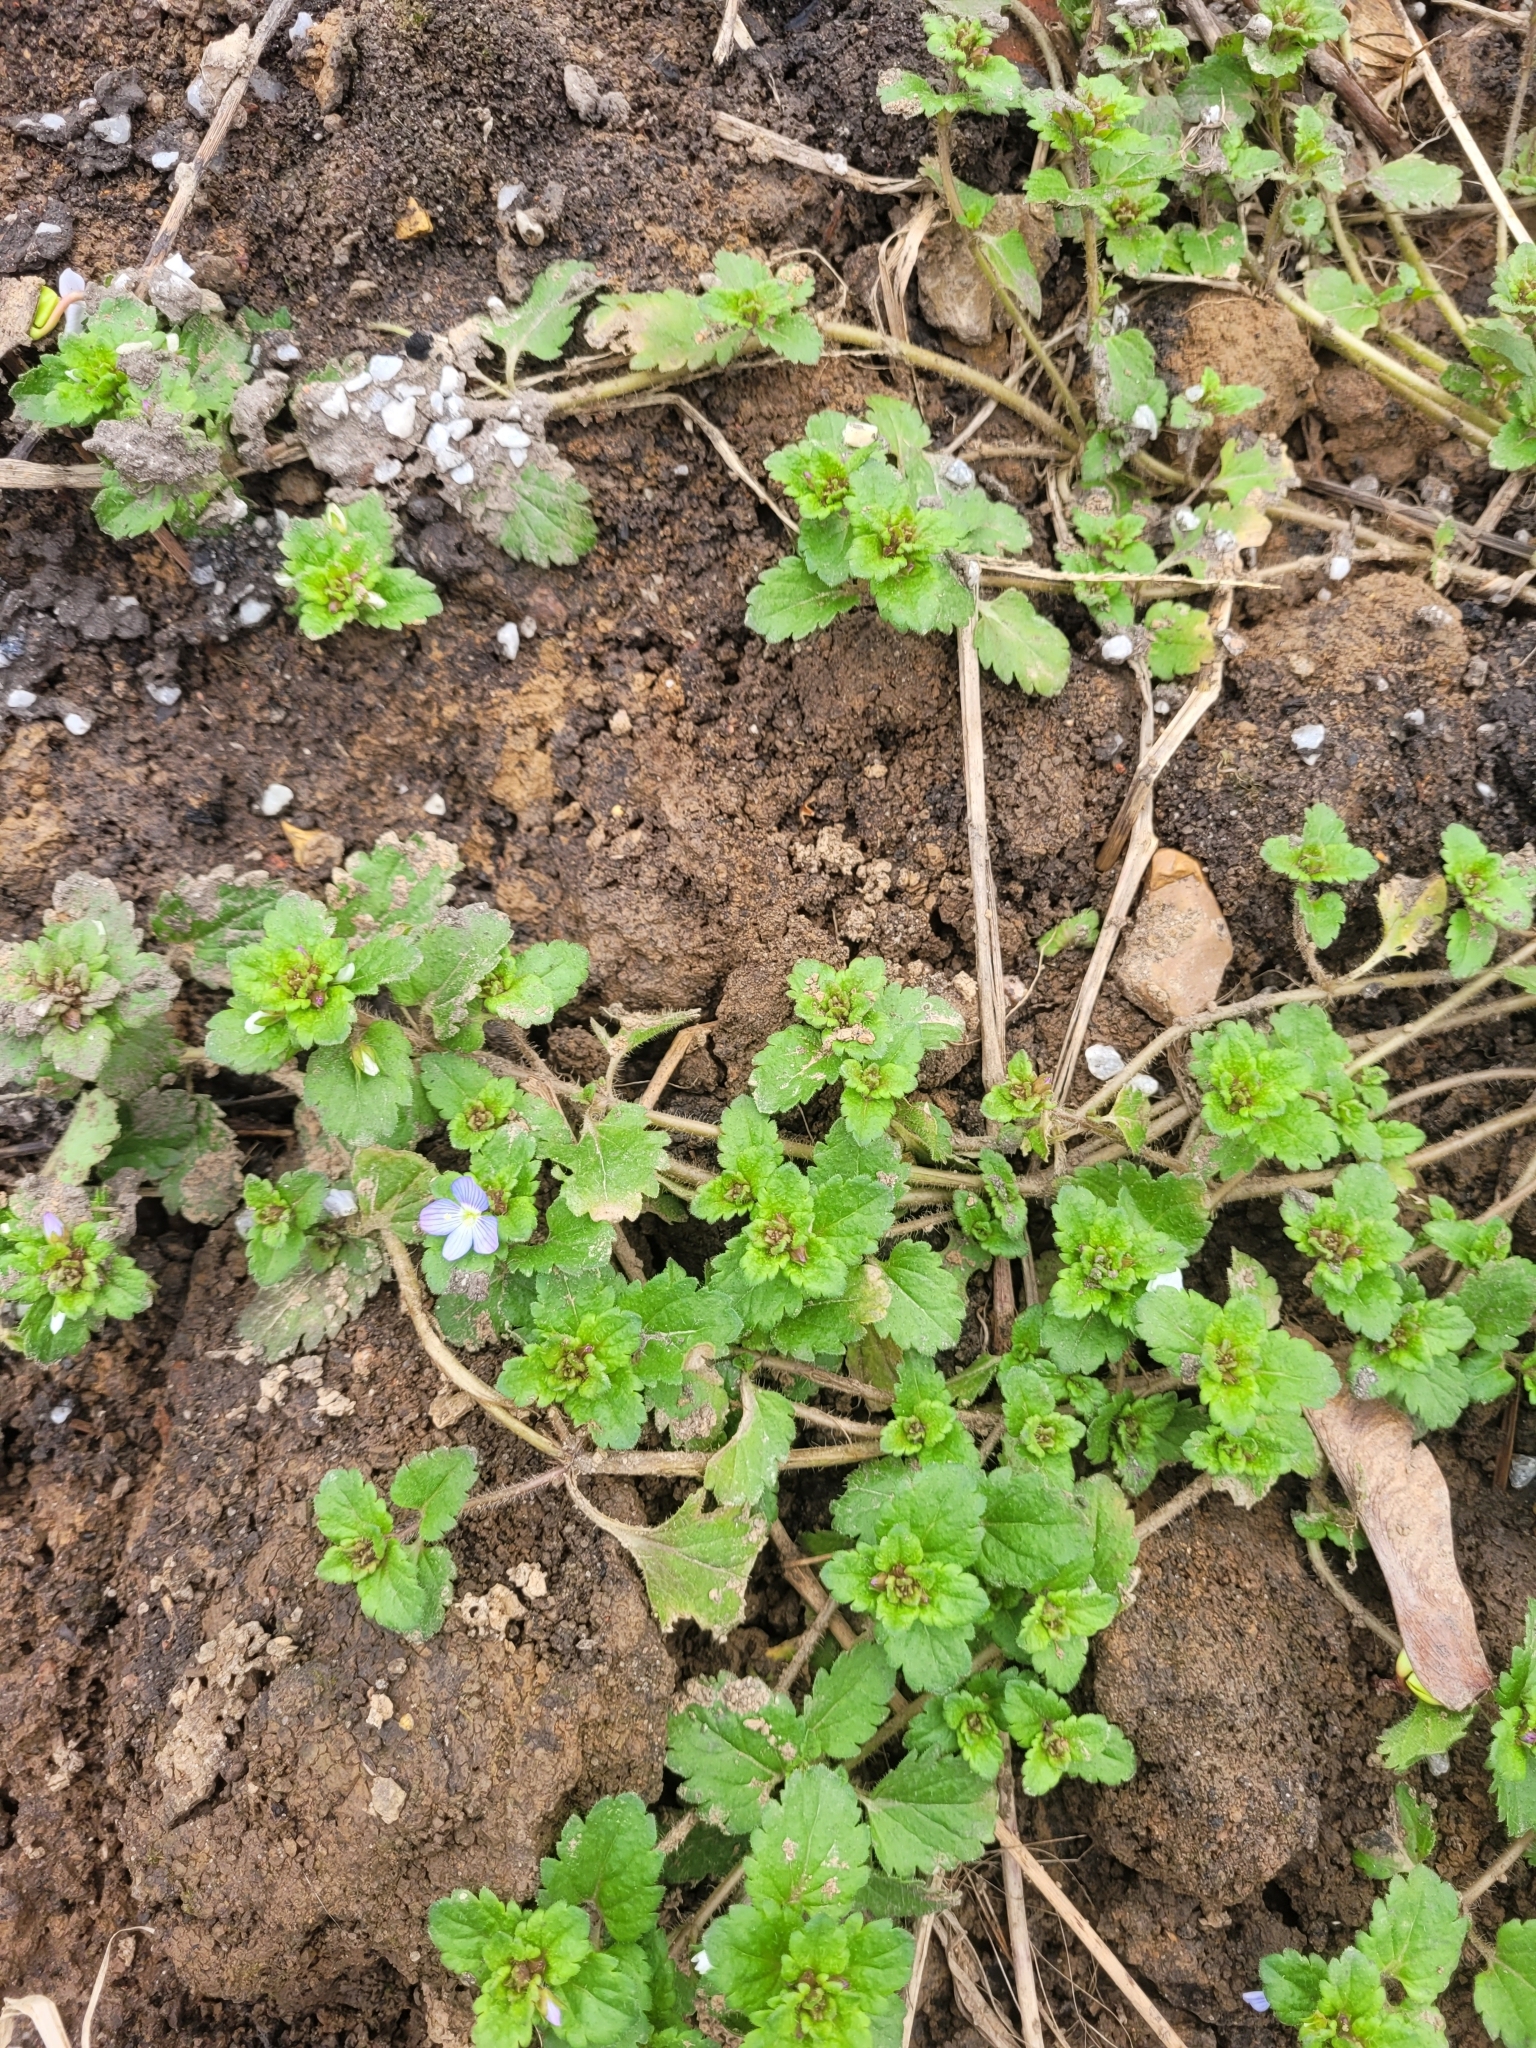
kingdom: Plantae
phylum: Tracheophyta
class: Magnoliopsida
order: Lamiales
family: Plantaginaceae
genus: Veronica
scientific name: Veronica persica
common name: Common field-speedwell
